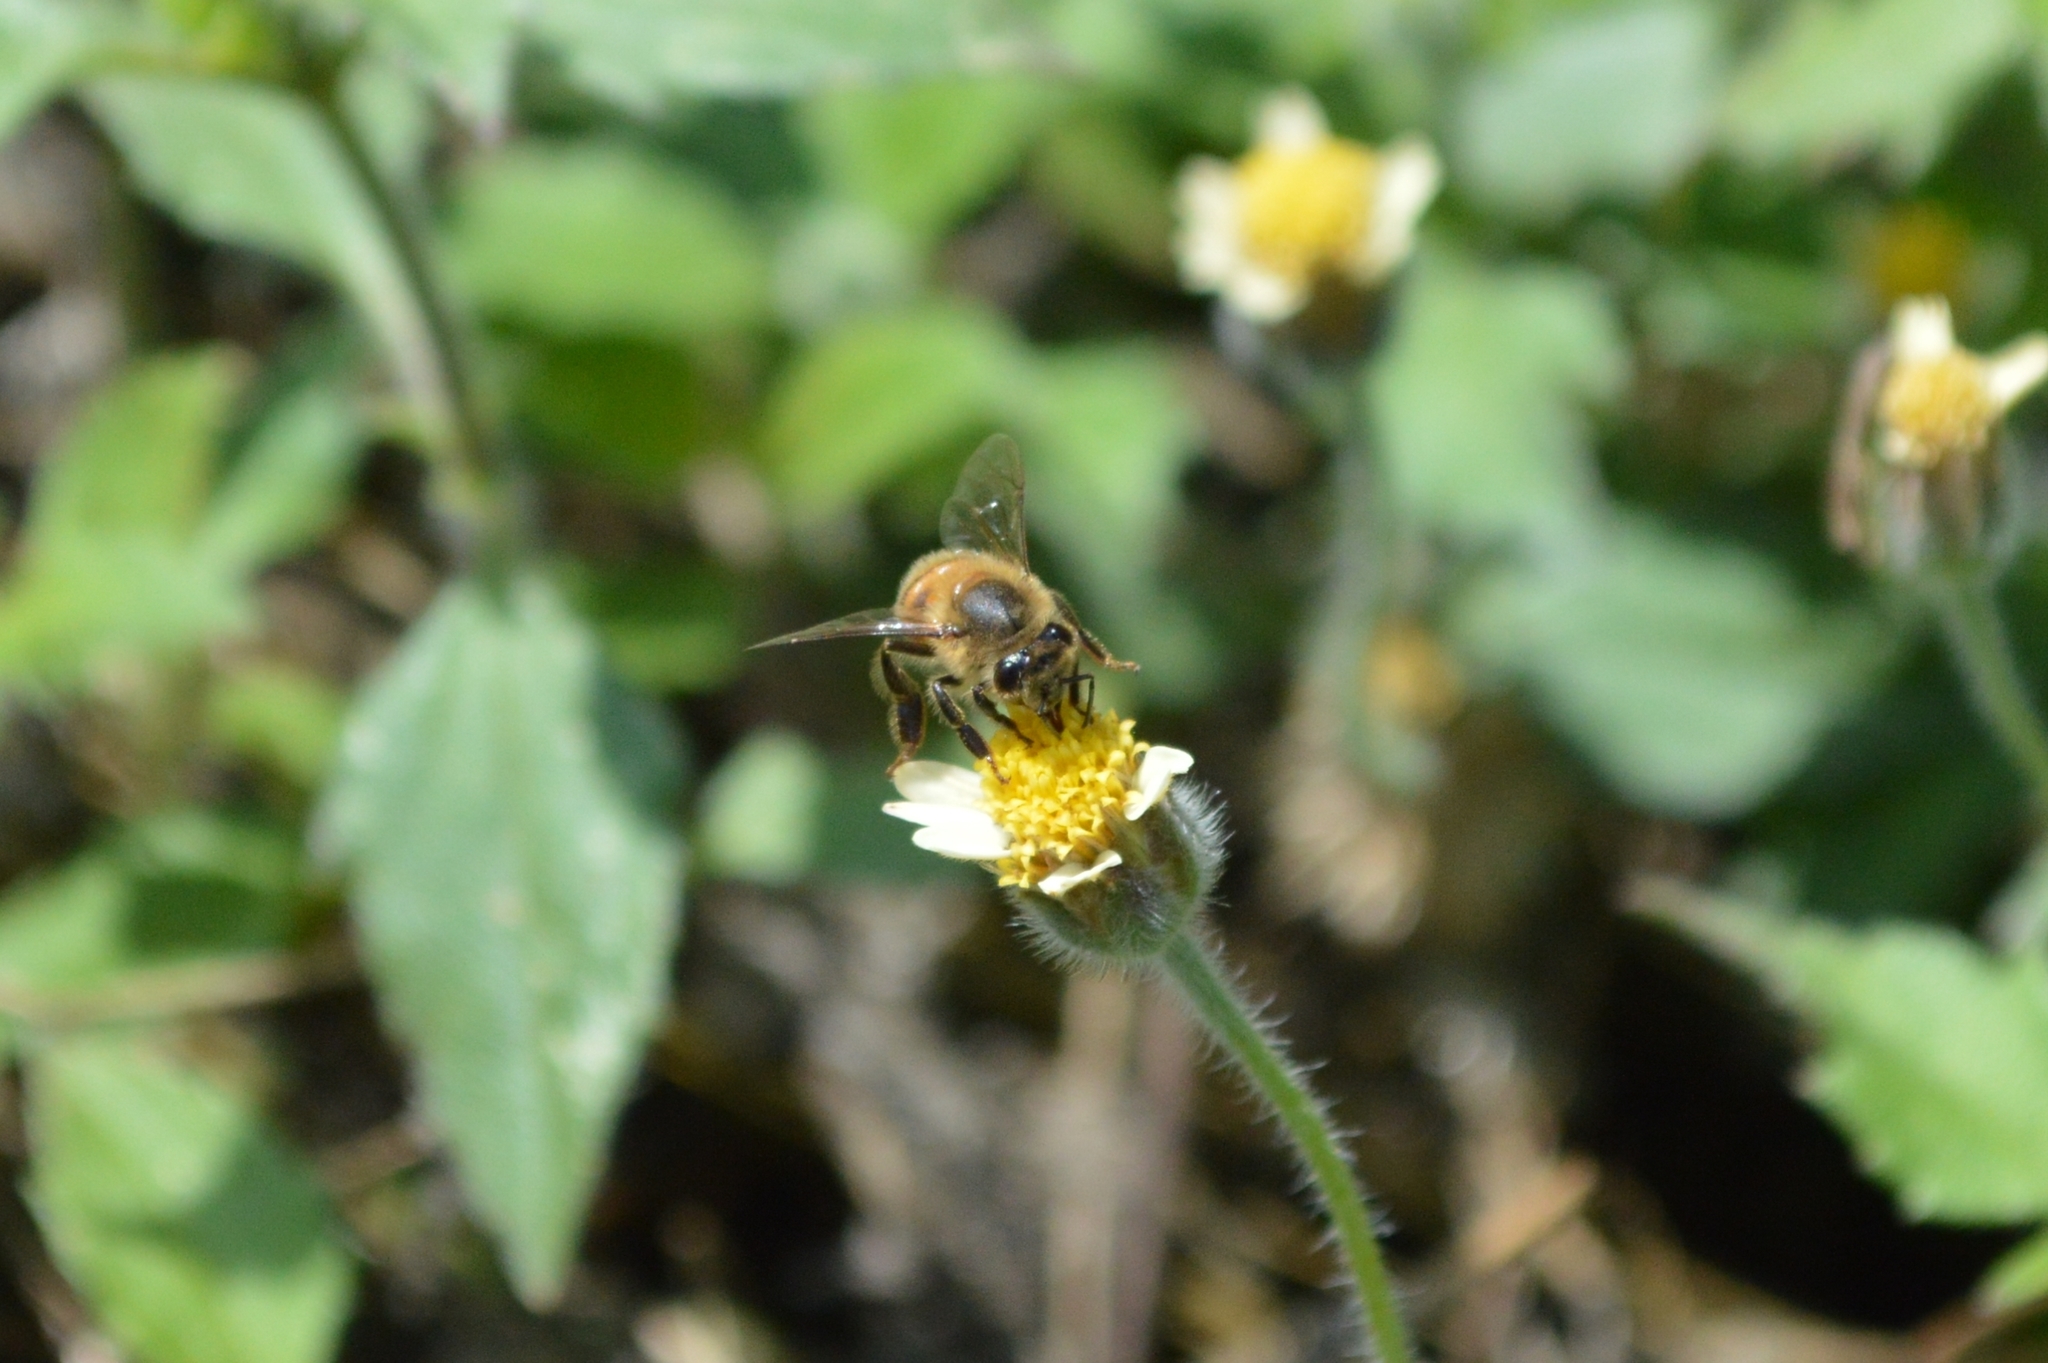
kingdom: Animalia
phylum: Arthropoda
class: Insecta
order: Hymenoptera
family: Apidae
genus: Apis
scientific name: Apis mellifera
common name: Honey bee
